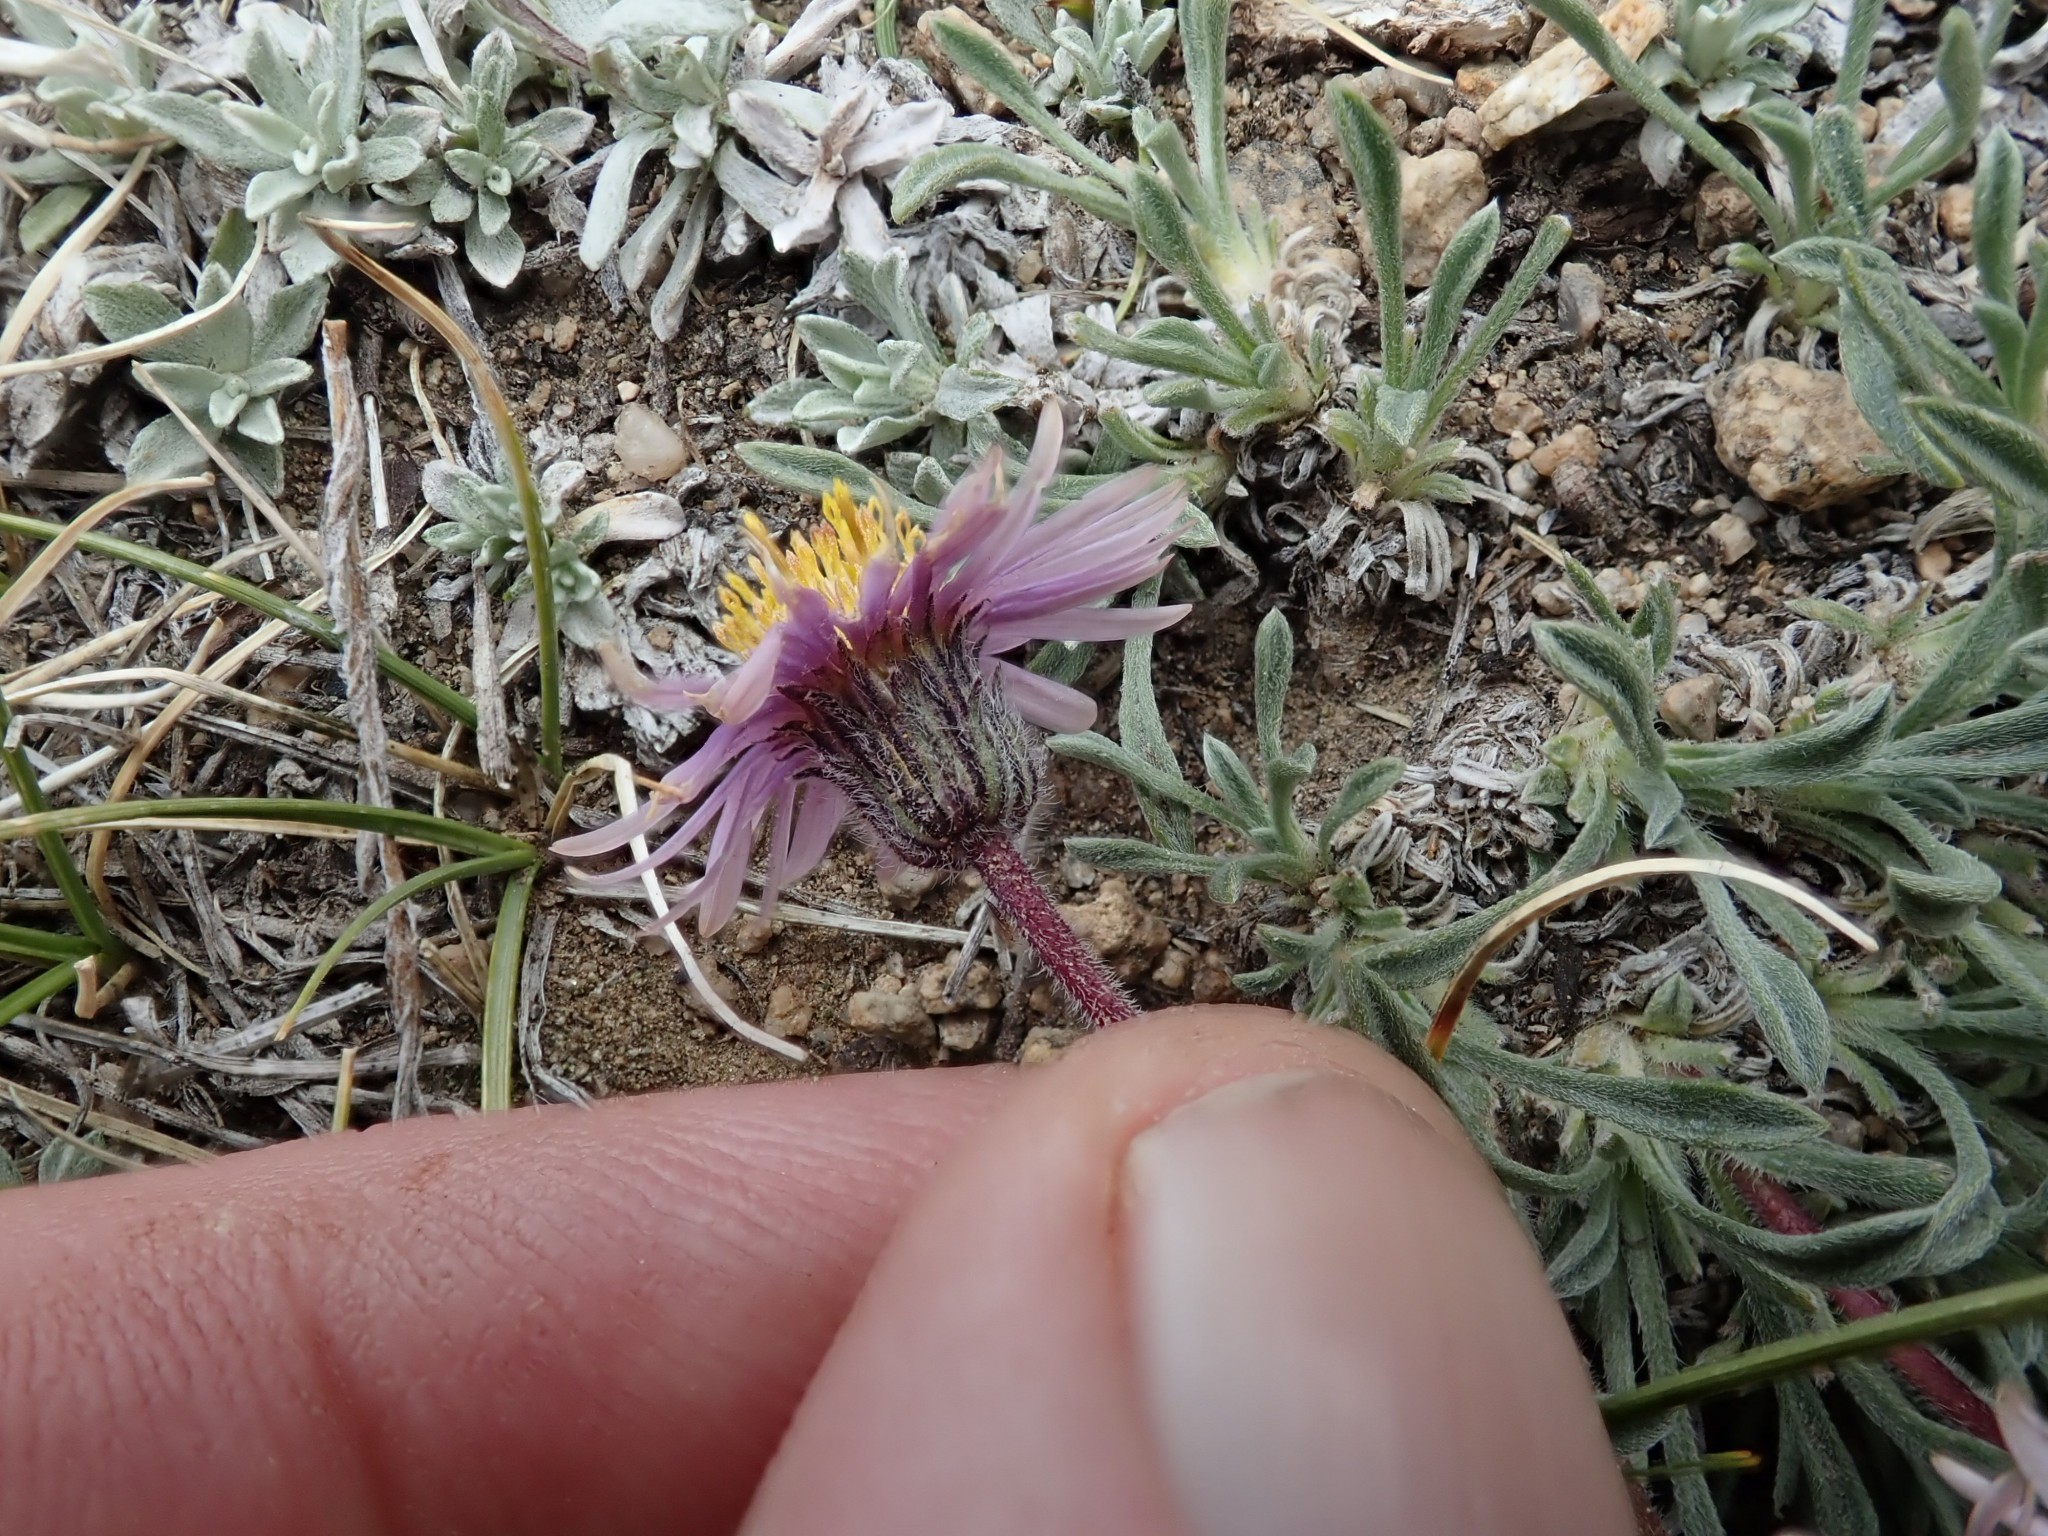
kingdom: Plantae
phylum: Tracheophyta
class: Magnoliopsida
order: Asterales
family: Asteraceae
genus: Erigeron
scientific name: Erigeron pygmaeus
